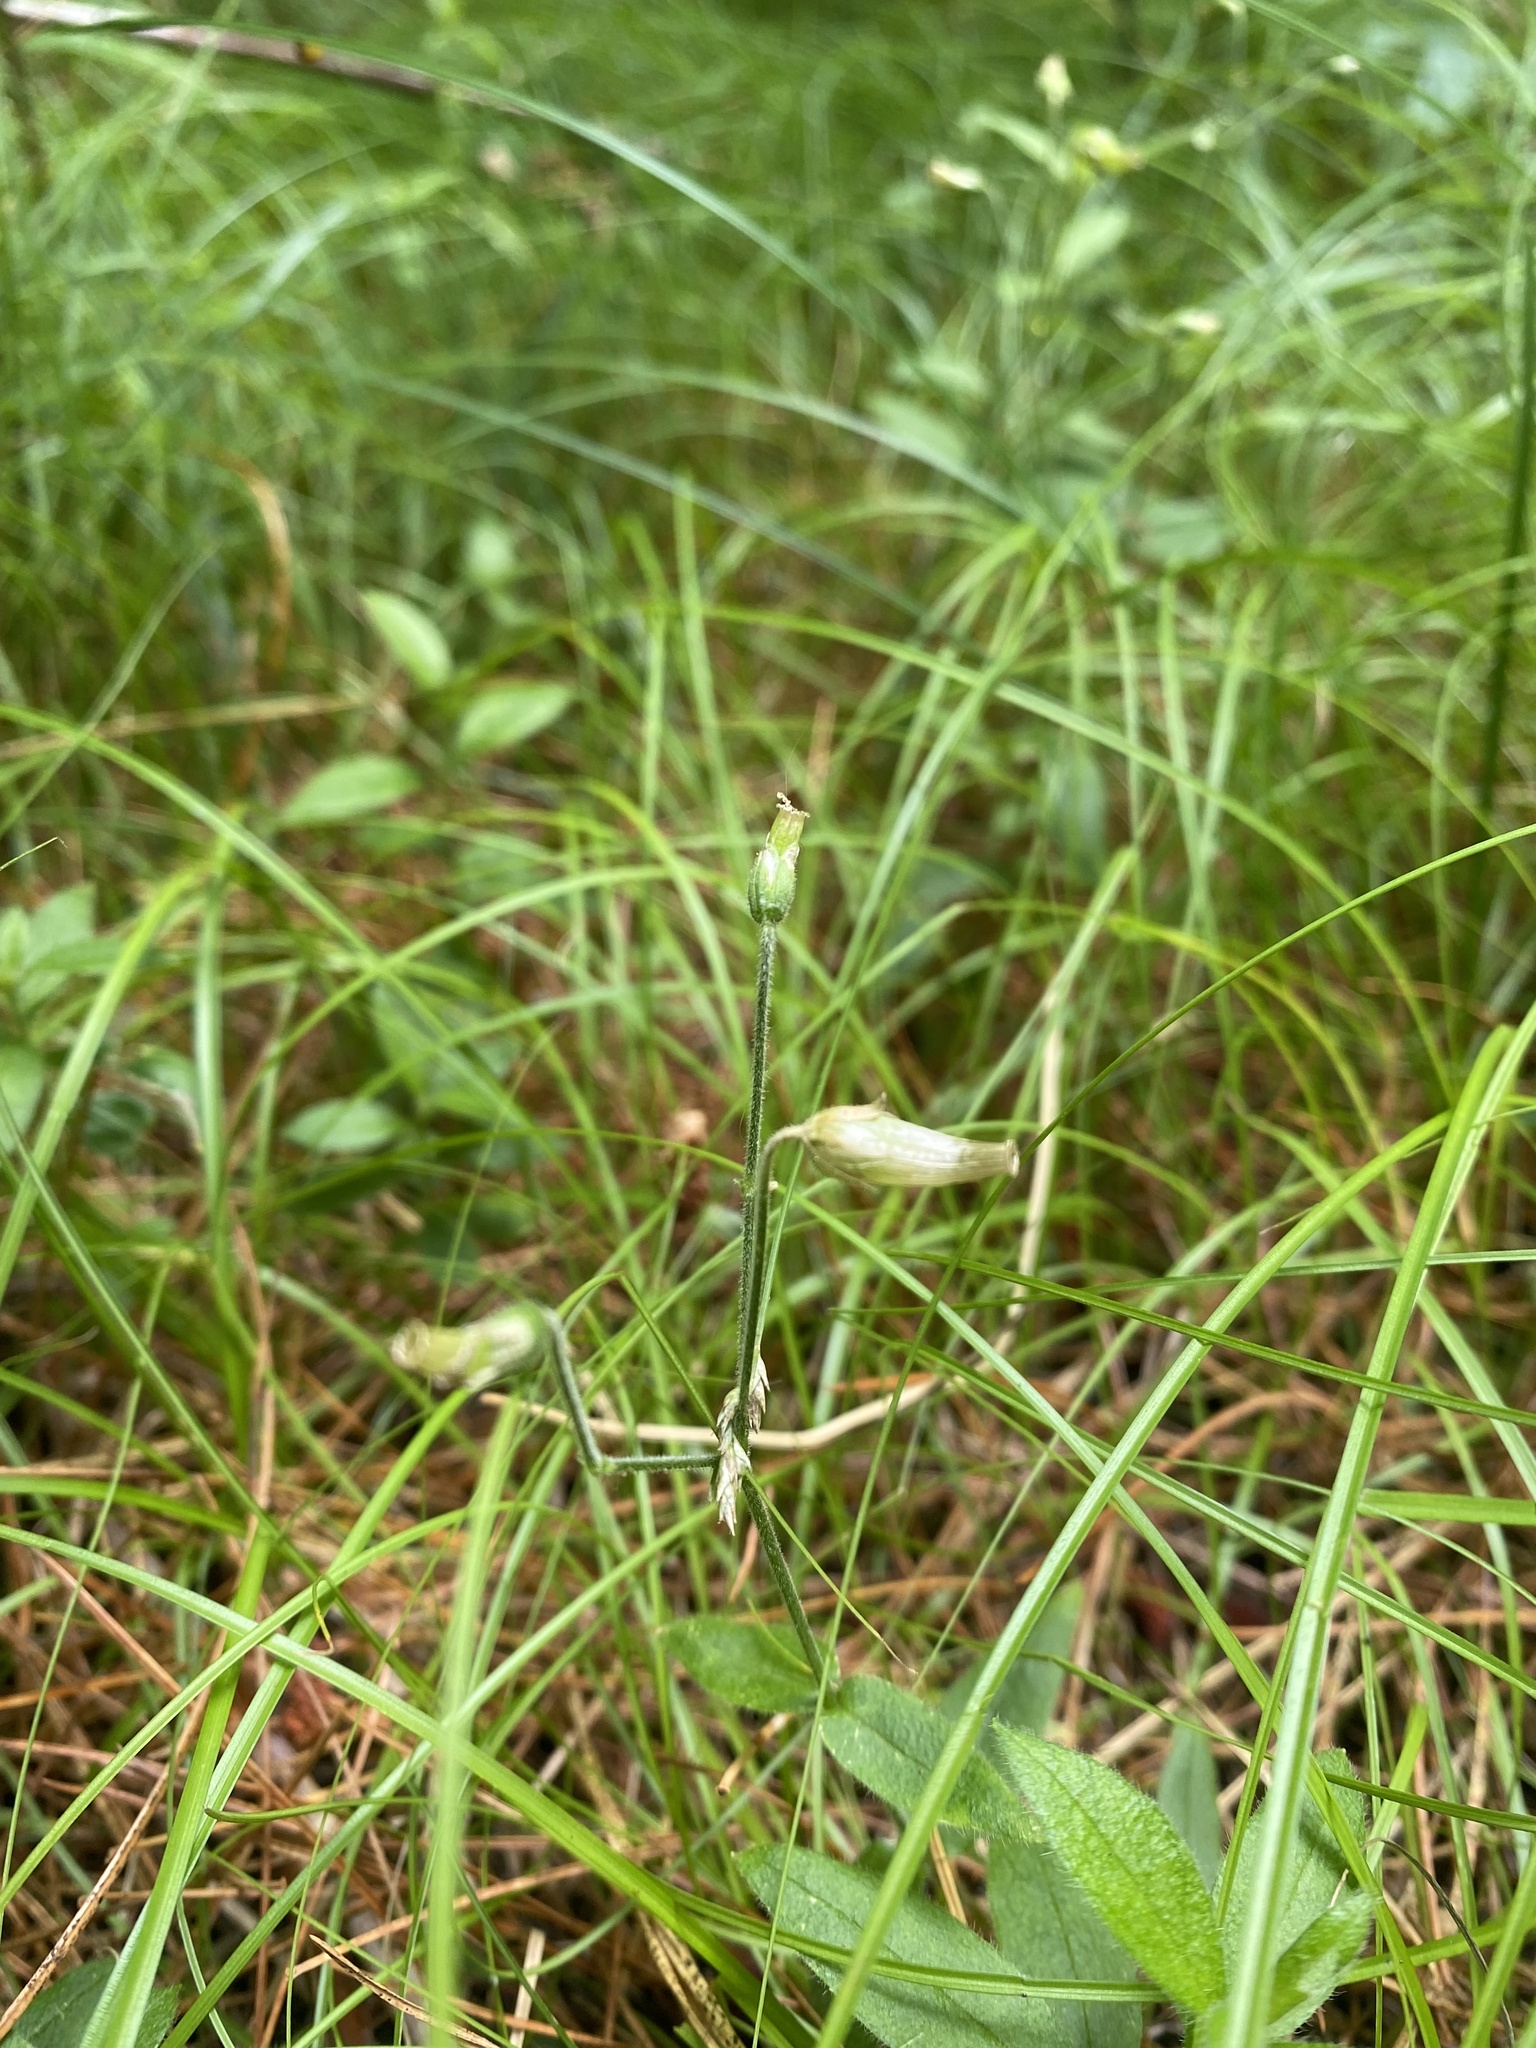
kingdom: Plantae
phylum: Tracheophyta
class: Magnoliopsida
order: Caryophyllales
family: Caryophyllaceae
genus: Cerastium
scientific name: Cerastium pauciflorum
